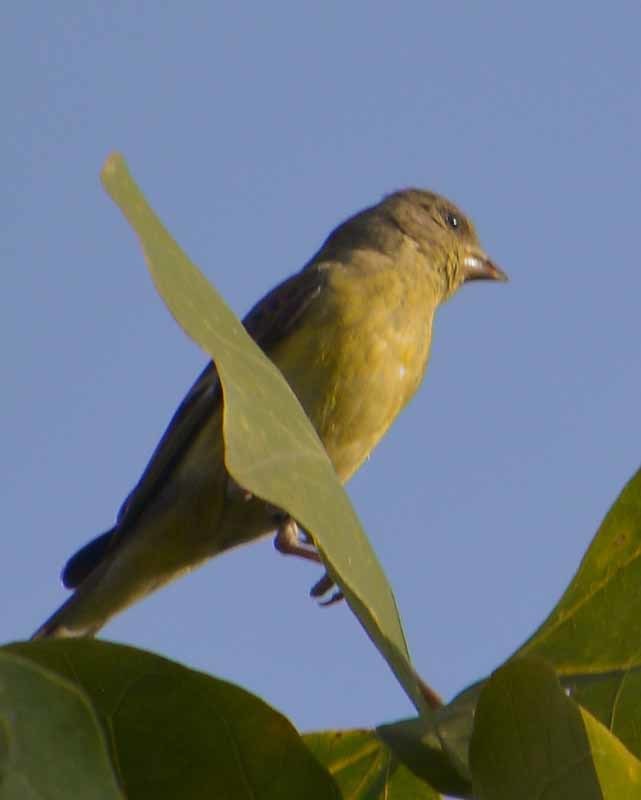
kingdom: Animalia
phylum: Chordata
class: Aves
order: Passeriformes
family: Fringillidae
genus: Spinus
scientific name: Spinus psaltria
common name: Lesser goldfinch
